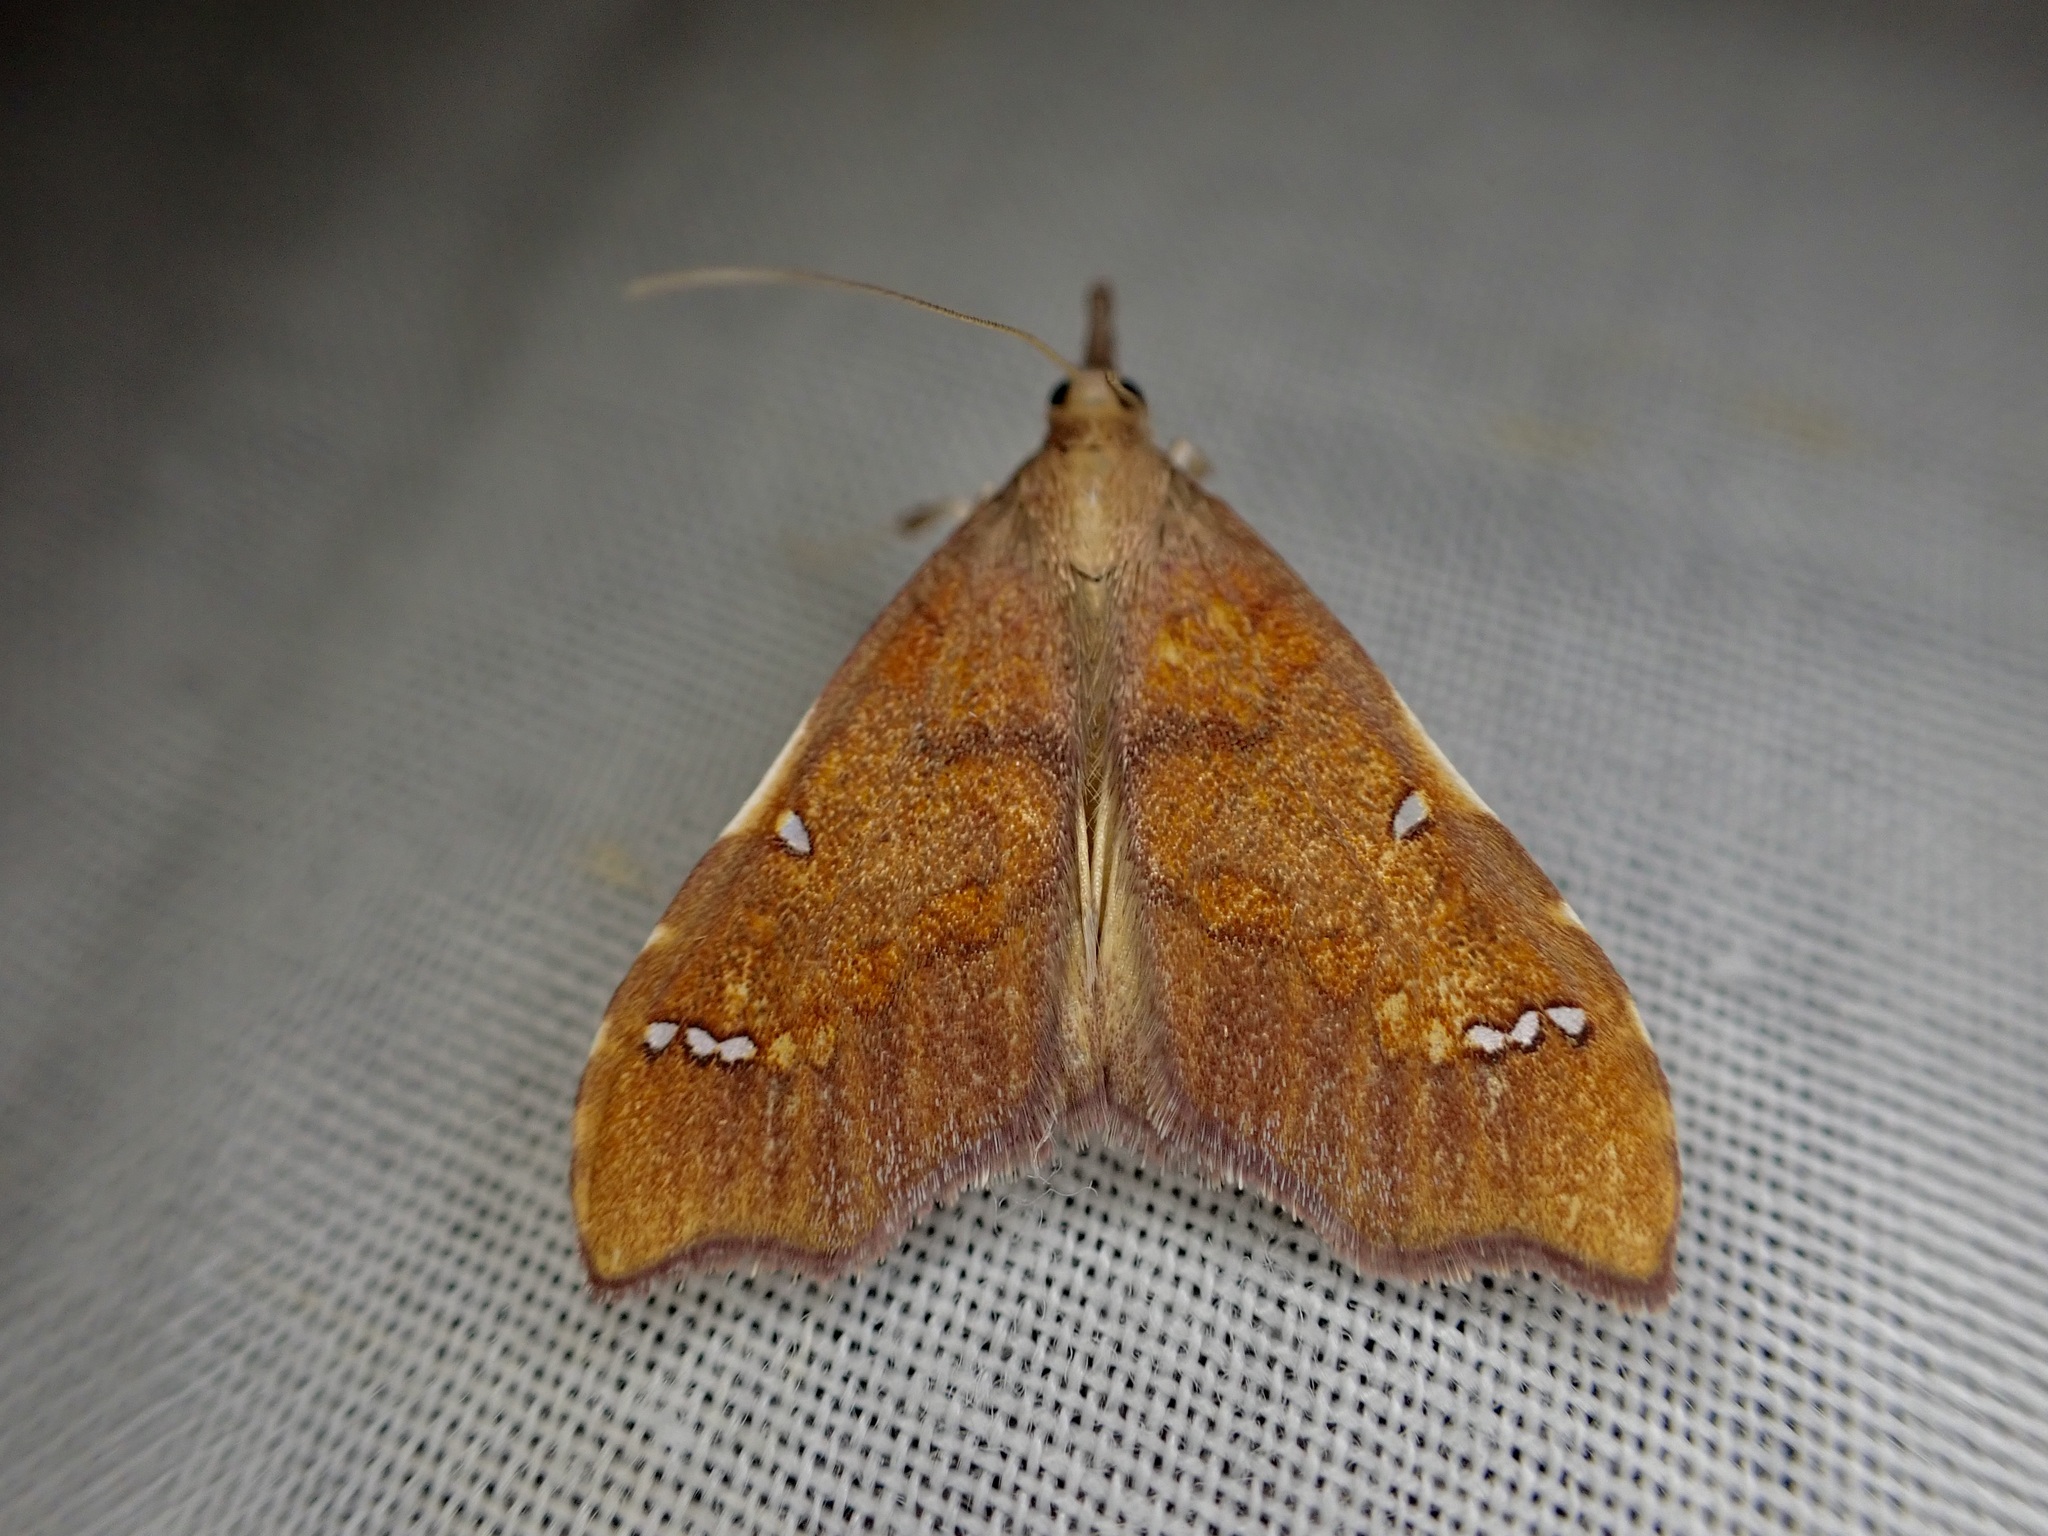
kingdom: Animalia
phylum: Arthropoda
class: Insecta
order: Lepidoptera
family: Crambidae
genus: Deana
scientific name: Deana hybreasalis
